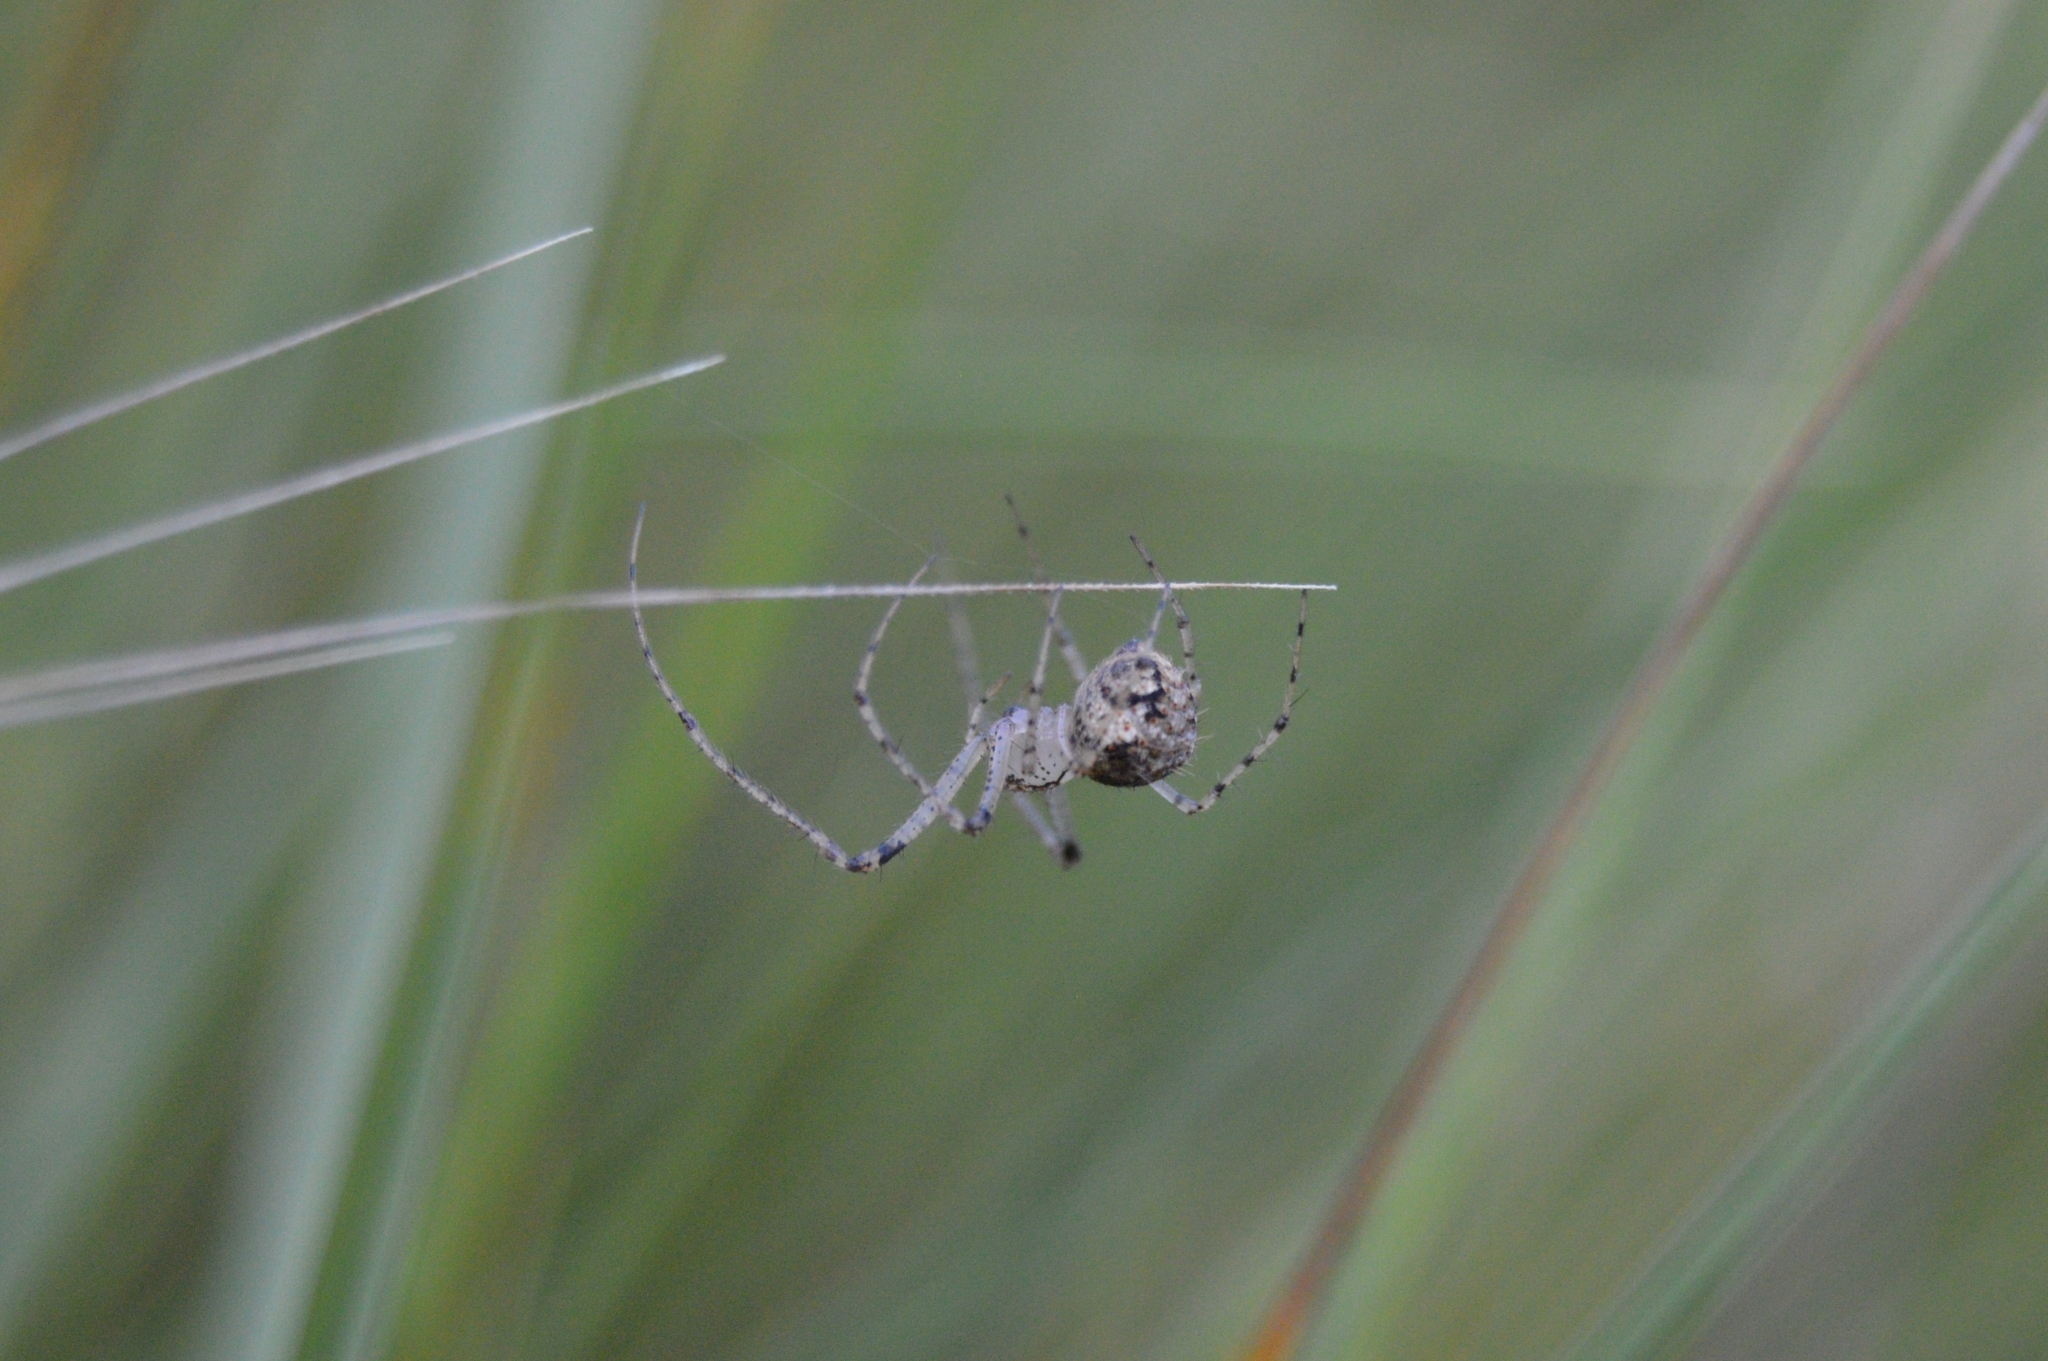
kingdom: Animalia
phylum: Arthropoda
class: Arachnida
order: Araneae
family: Mimetidae
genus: Mimetus
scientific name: Mimetus laevigatus
